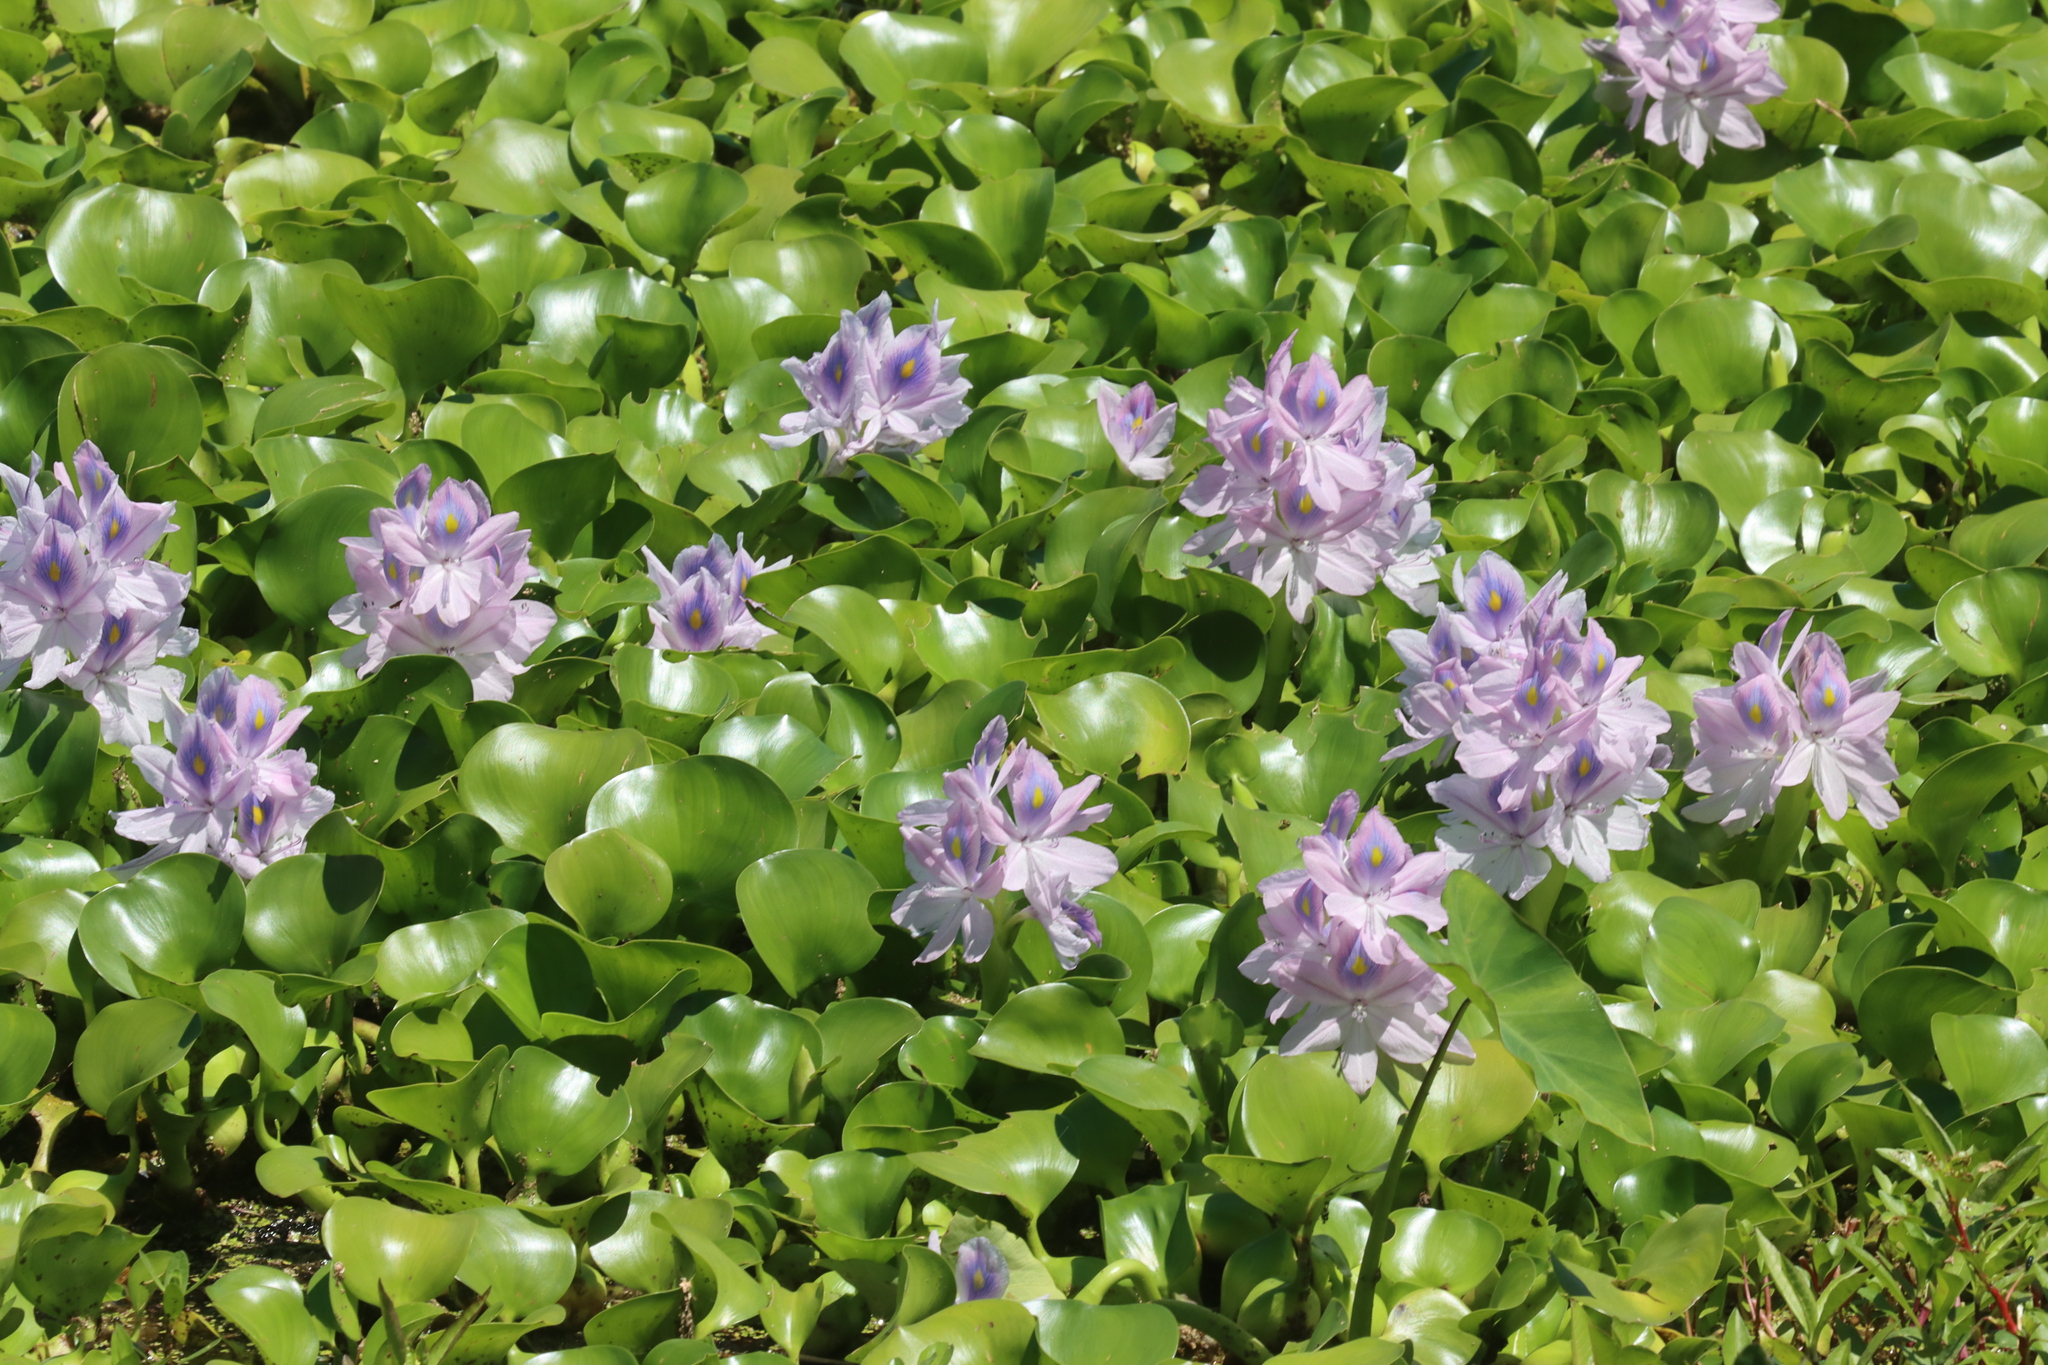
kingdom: Plantae
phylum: Tracheophyta
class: Liliopsida
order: Commelinales
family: Pontederiaceae
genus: Pontederia
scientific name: Pontederia crassipes
